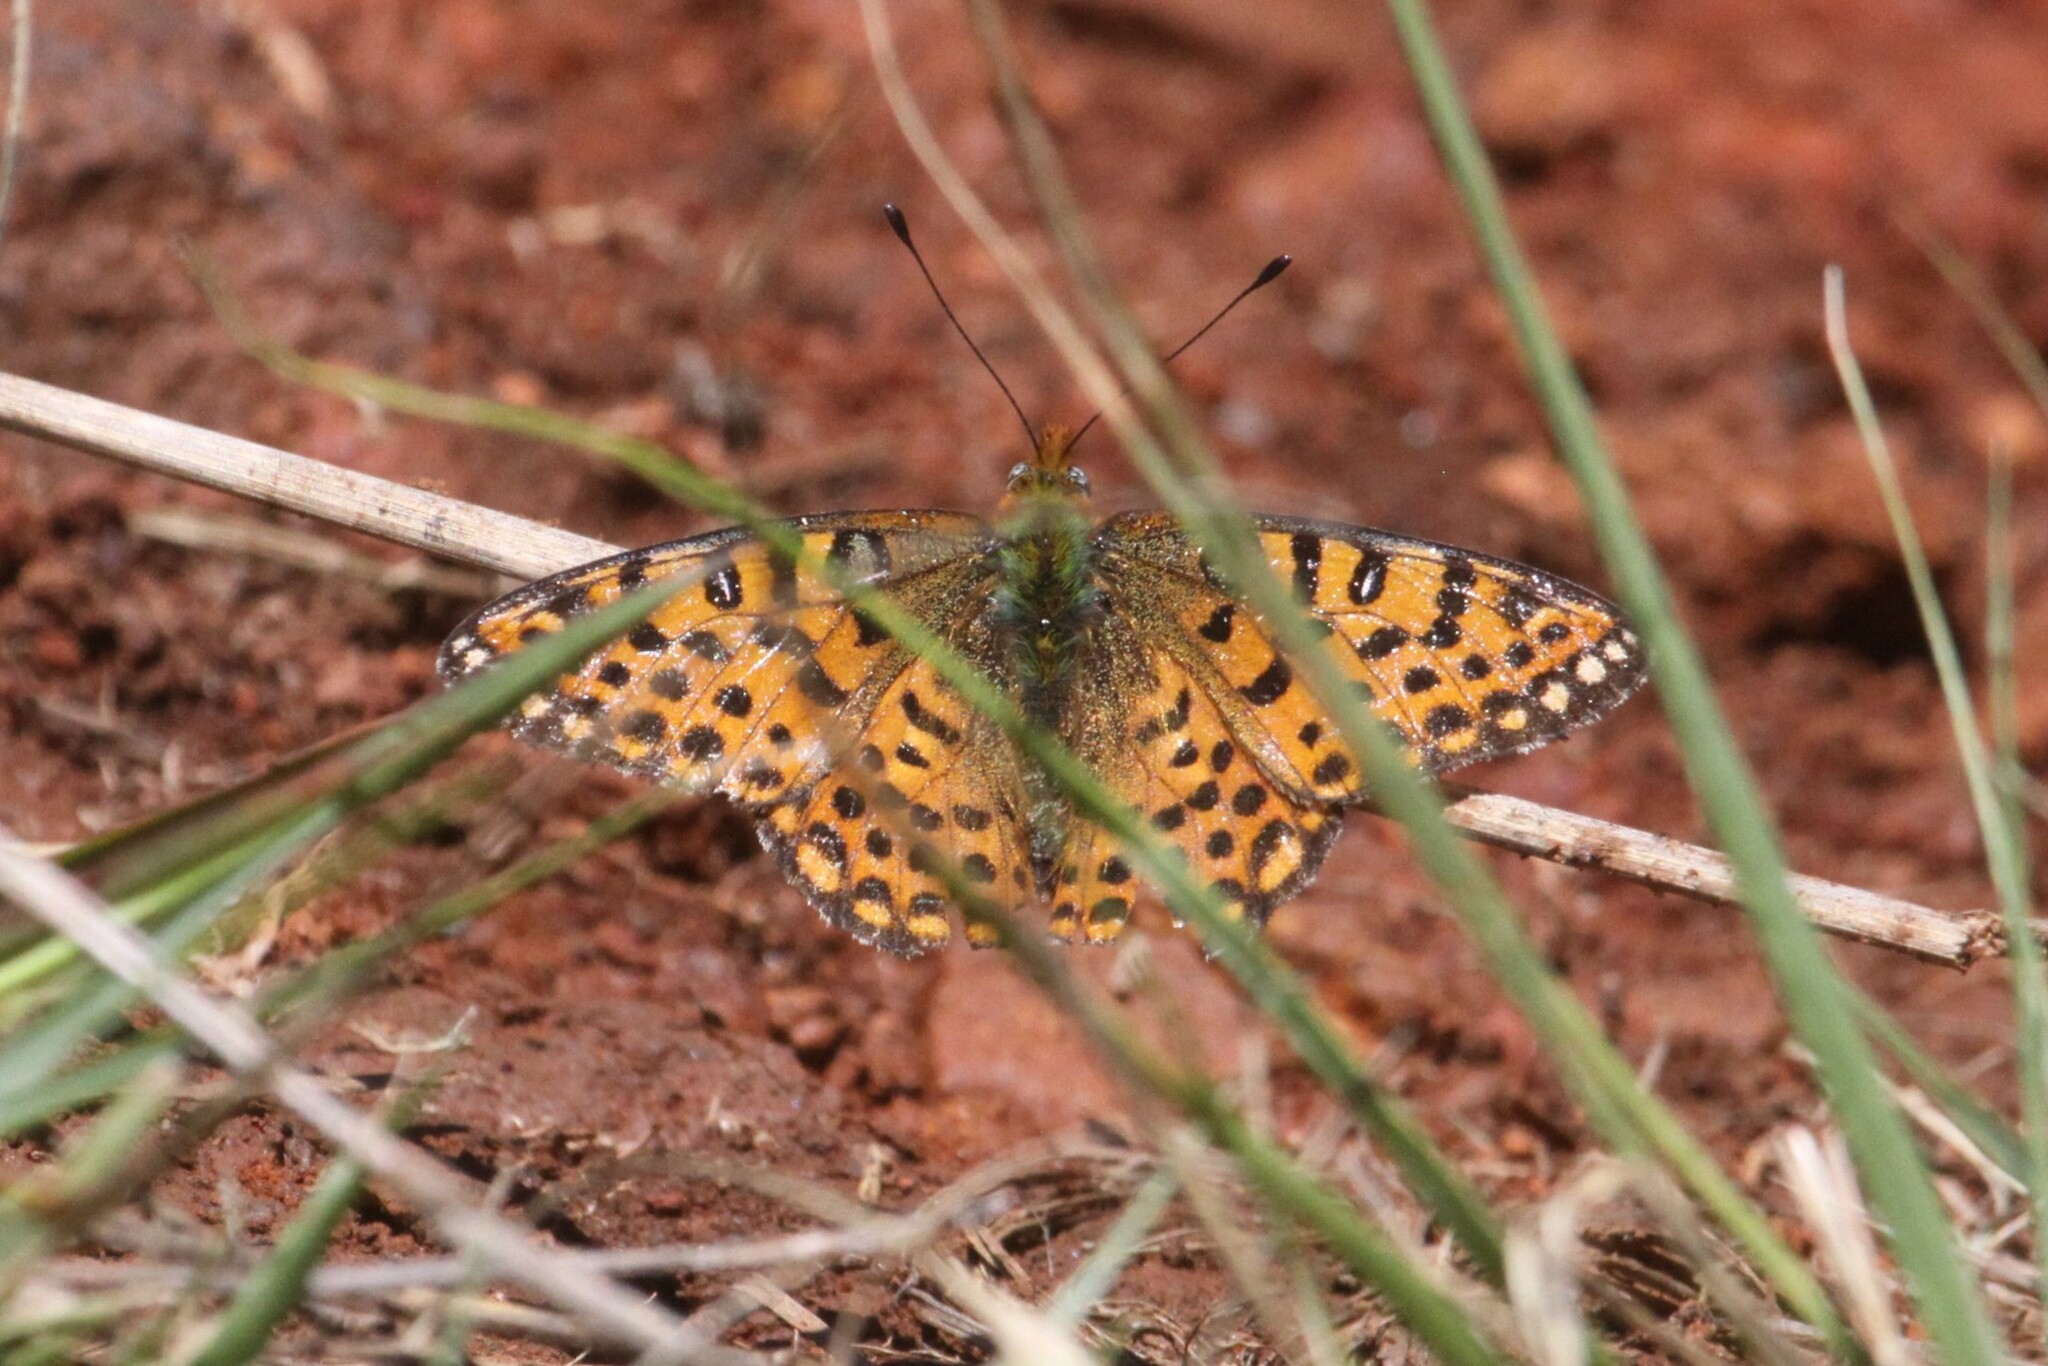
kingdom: Animalia
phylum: Arthropoda
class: Insecta
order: Lepidoptera
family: Nymphalidae
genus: Issoria
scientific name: Issoria smaragdifera
